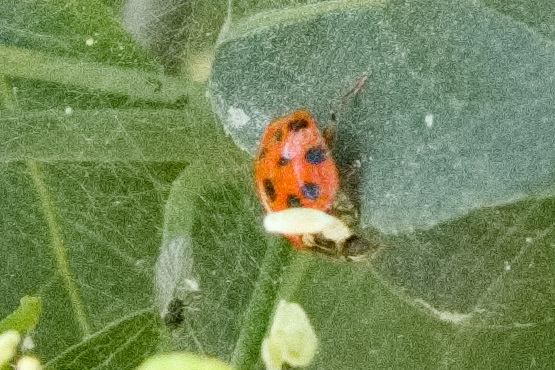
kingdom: Animalia
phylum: Arthropoda
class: Insecta
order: Coleoptera
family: Coccinellidae
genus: Harmonia
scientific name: Harmonia axyridis
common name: Harlequin ladybird
